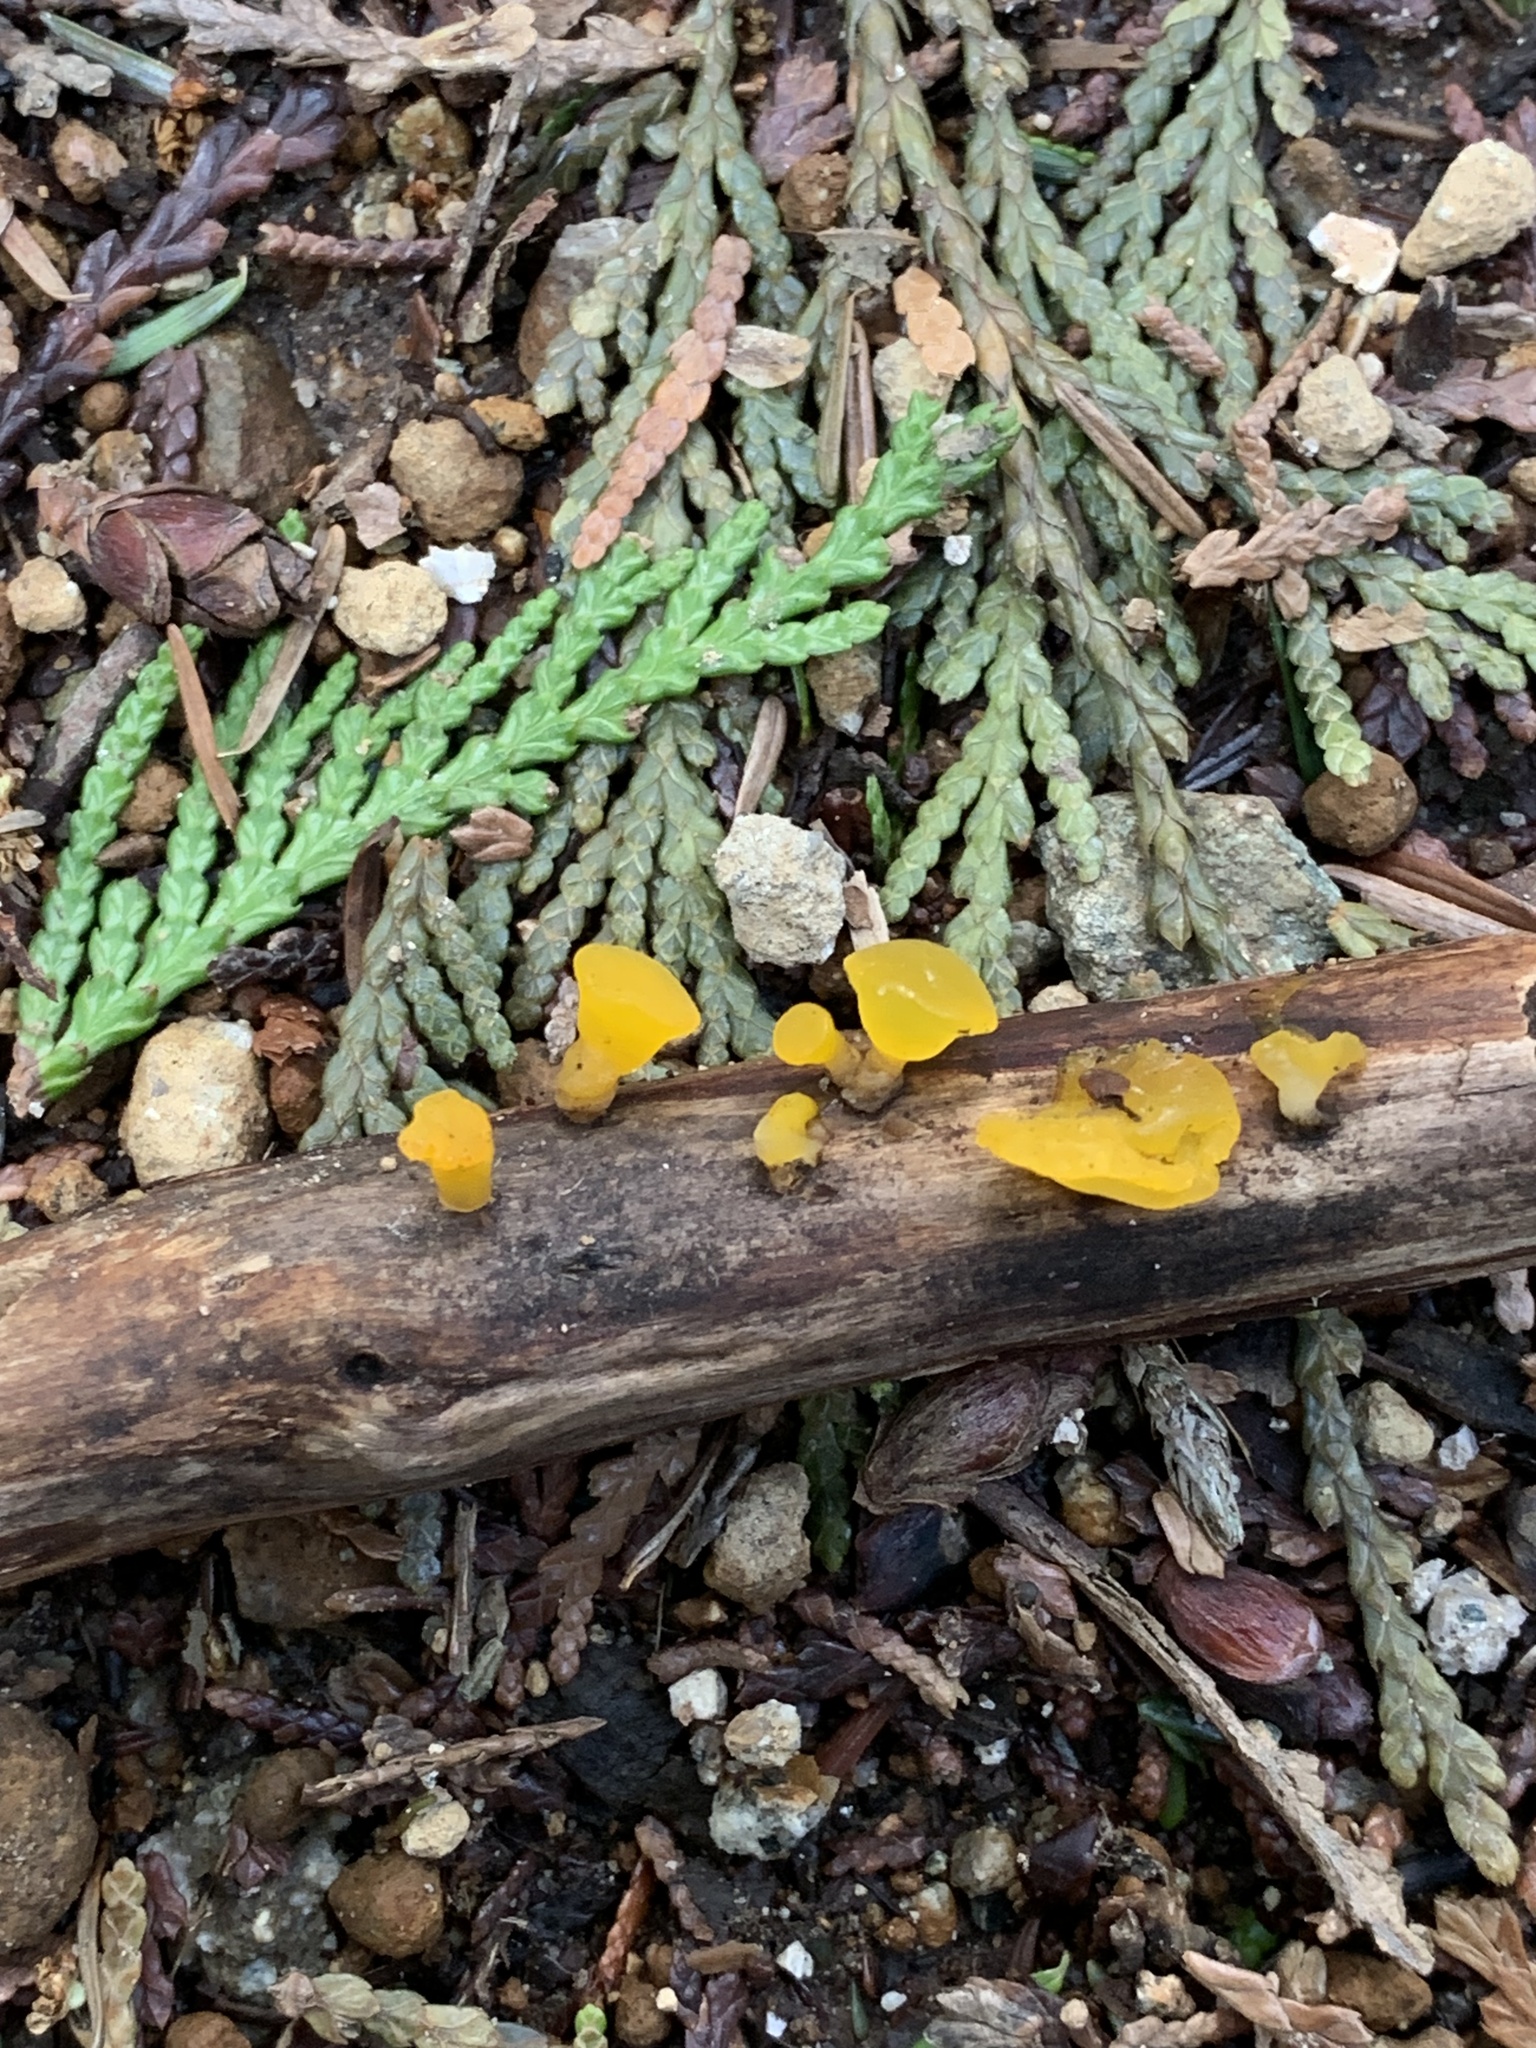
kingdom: Fungi
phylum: Basidiomycota
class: Dacrymycetes
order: Dacrymycetales
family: Dacrymycetaceae
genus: Guepiniopsis
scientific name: Guepiniopsis alpina
